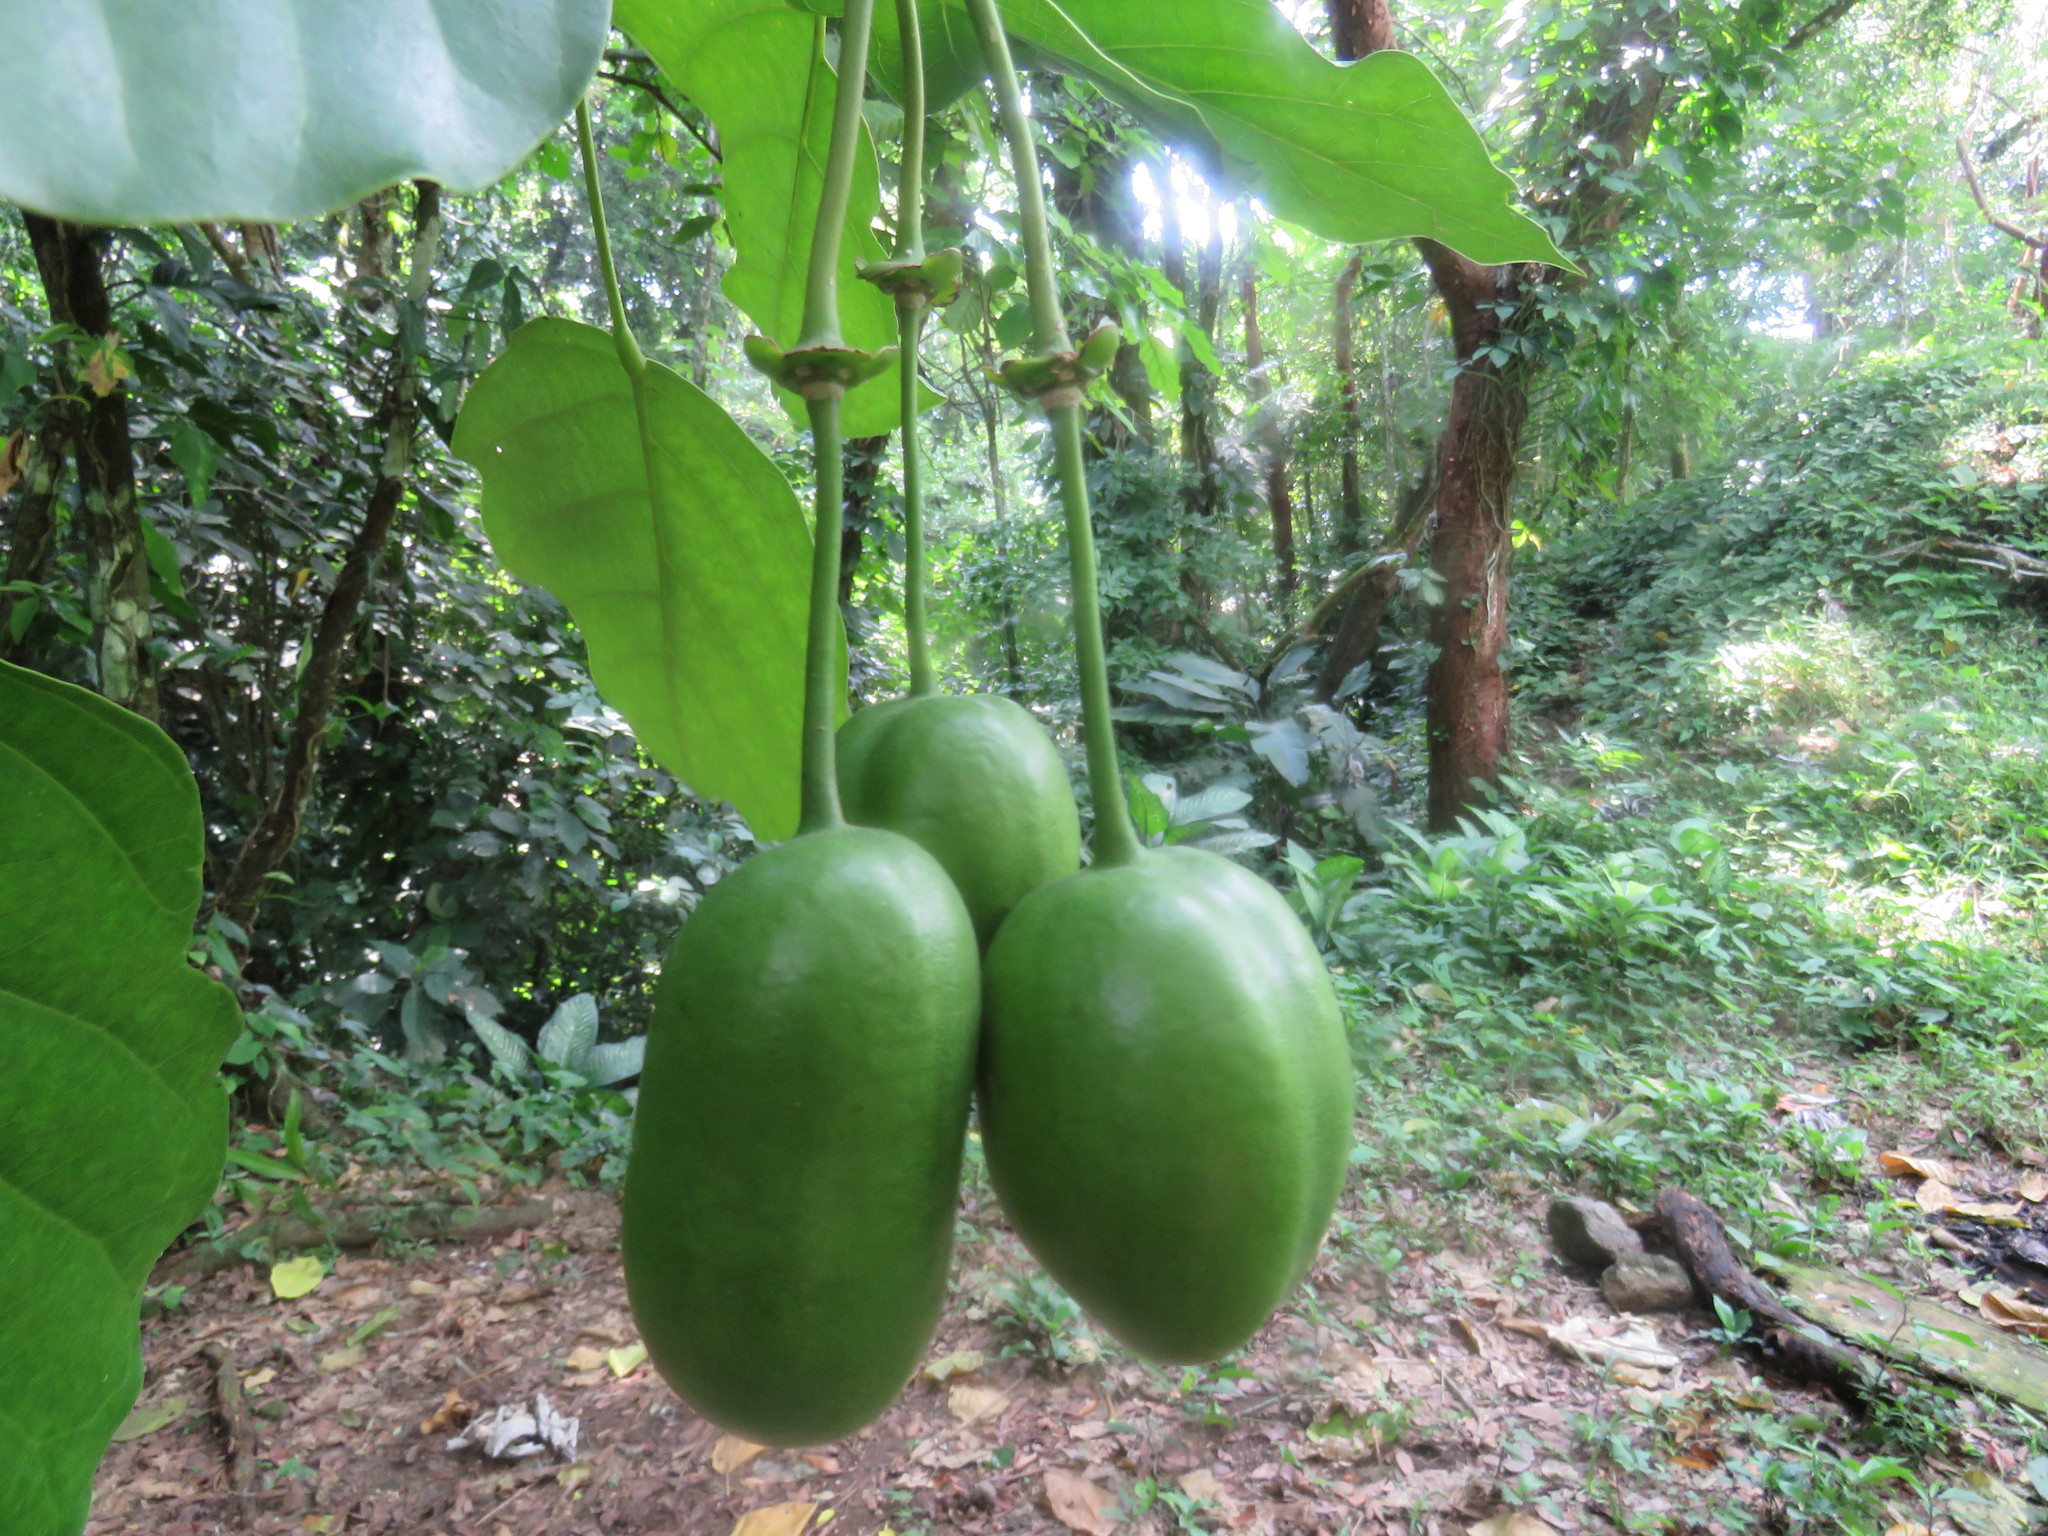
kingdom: Plantae
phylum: Tracheophyta
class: Magnoliopsida
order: Brassicales
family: Capparaceae
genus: Capparidastrum
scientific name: Capparidastrum mollicellum
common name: Caper
